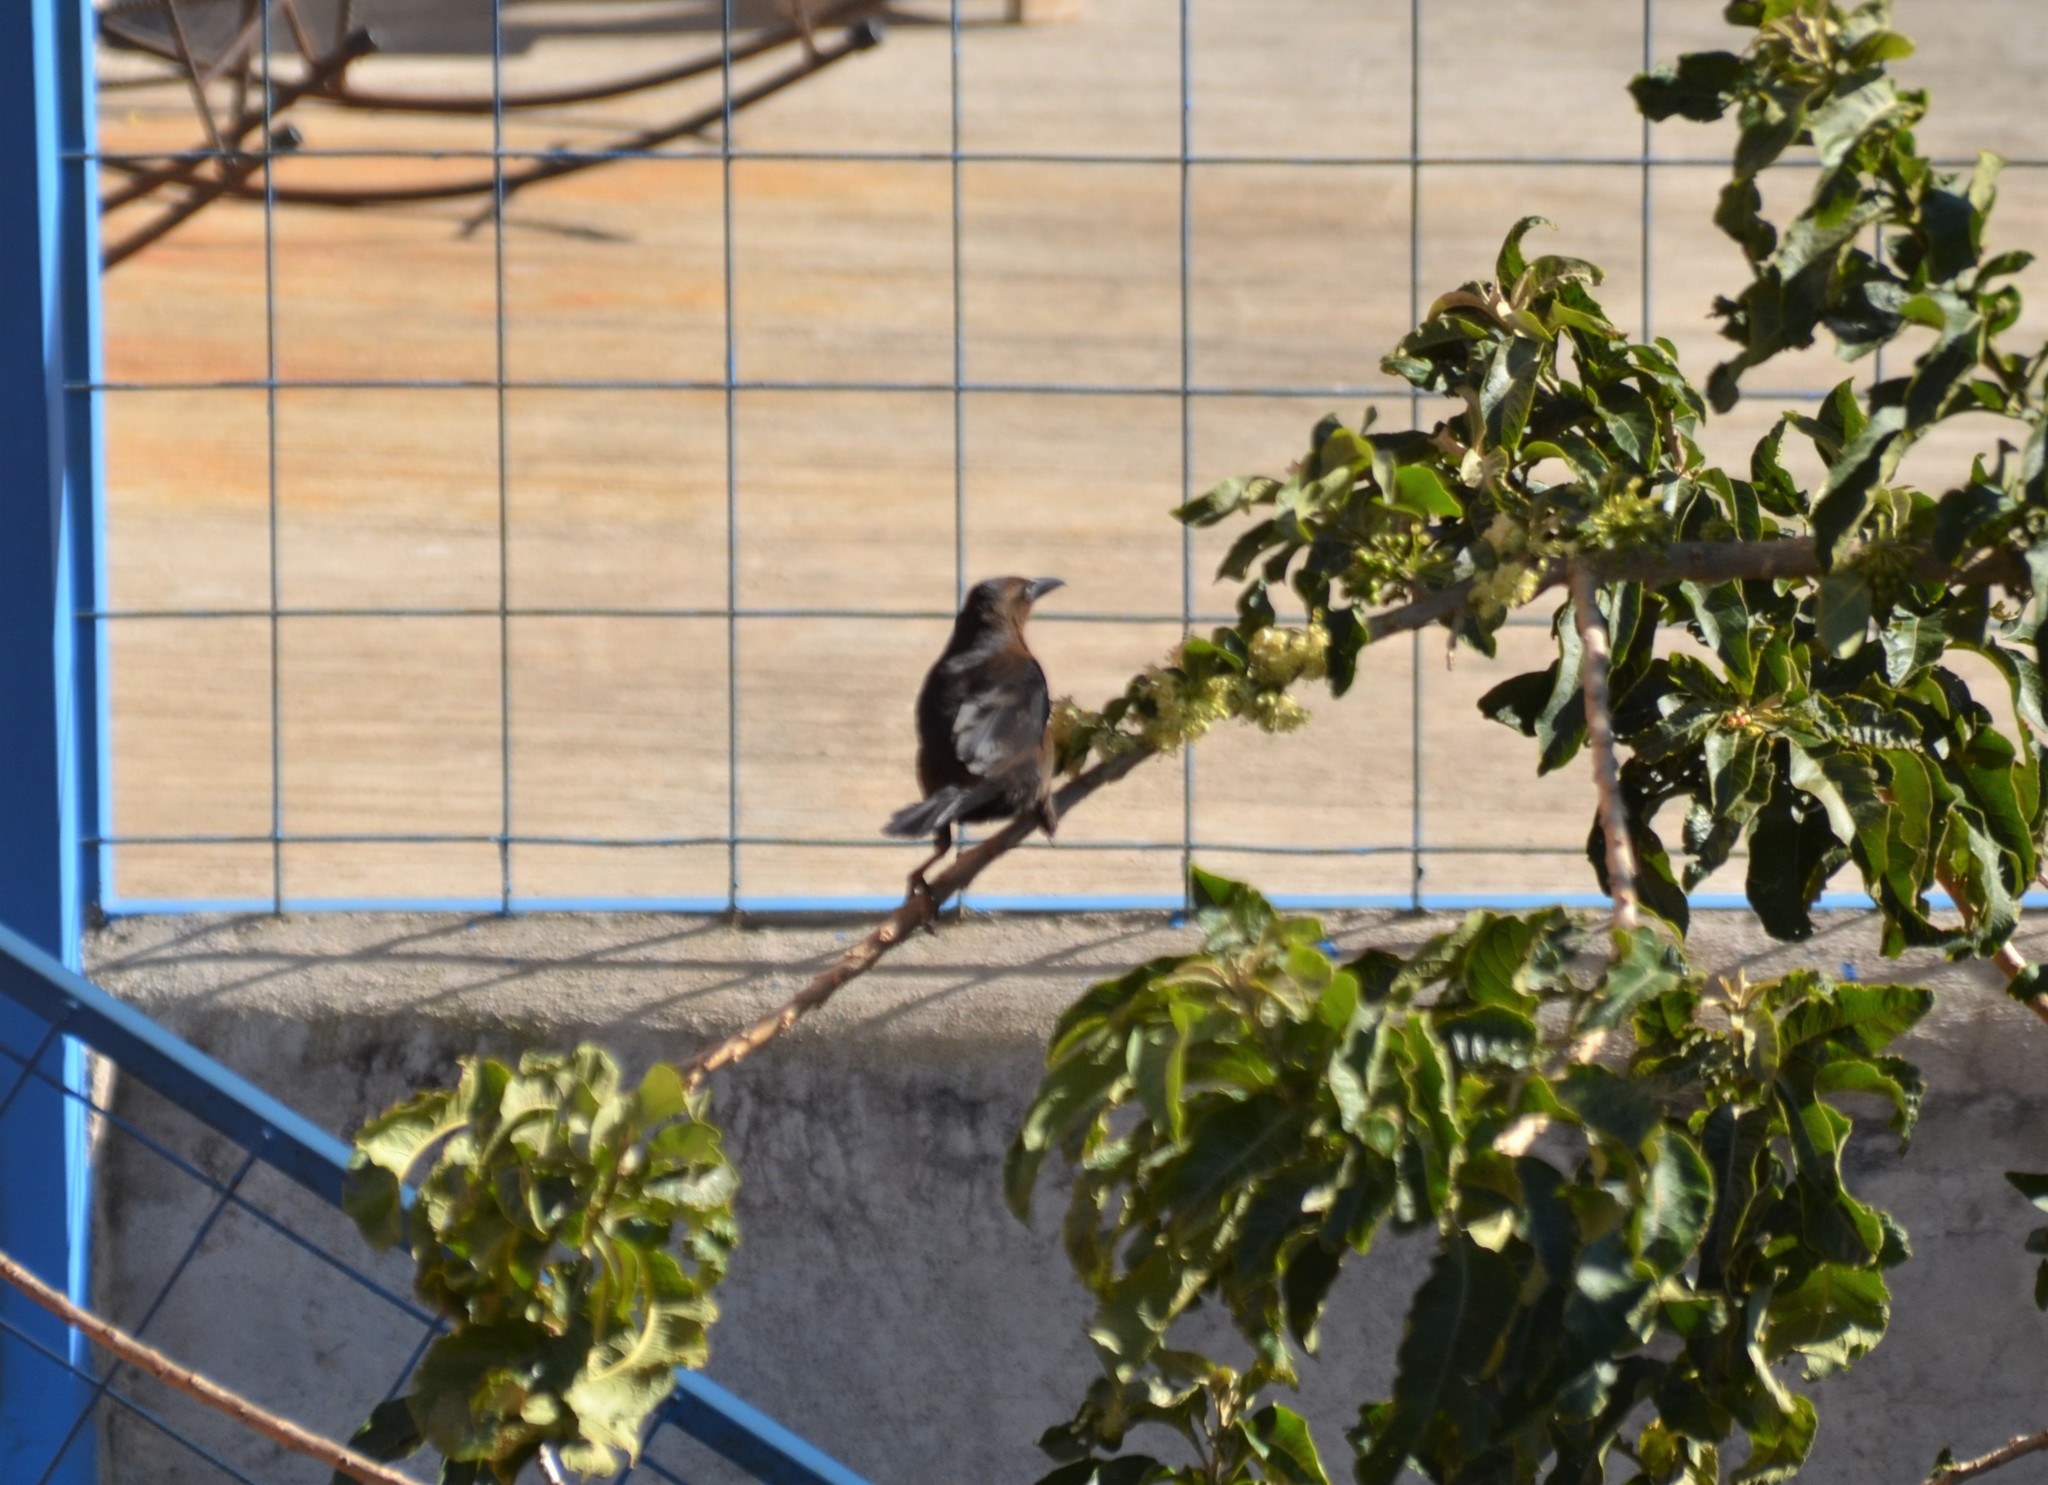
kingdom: Animalia
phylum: Chordata
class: Aves
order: Passeriformes
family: Icteridae
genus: Quiscalus
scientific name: Quiscalus mexicanus
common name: Great-tailed grackle
